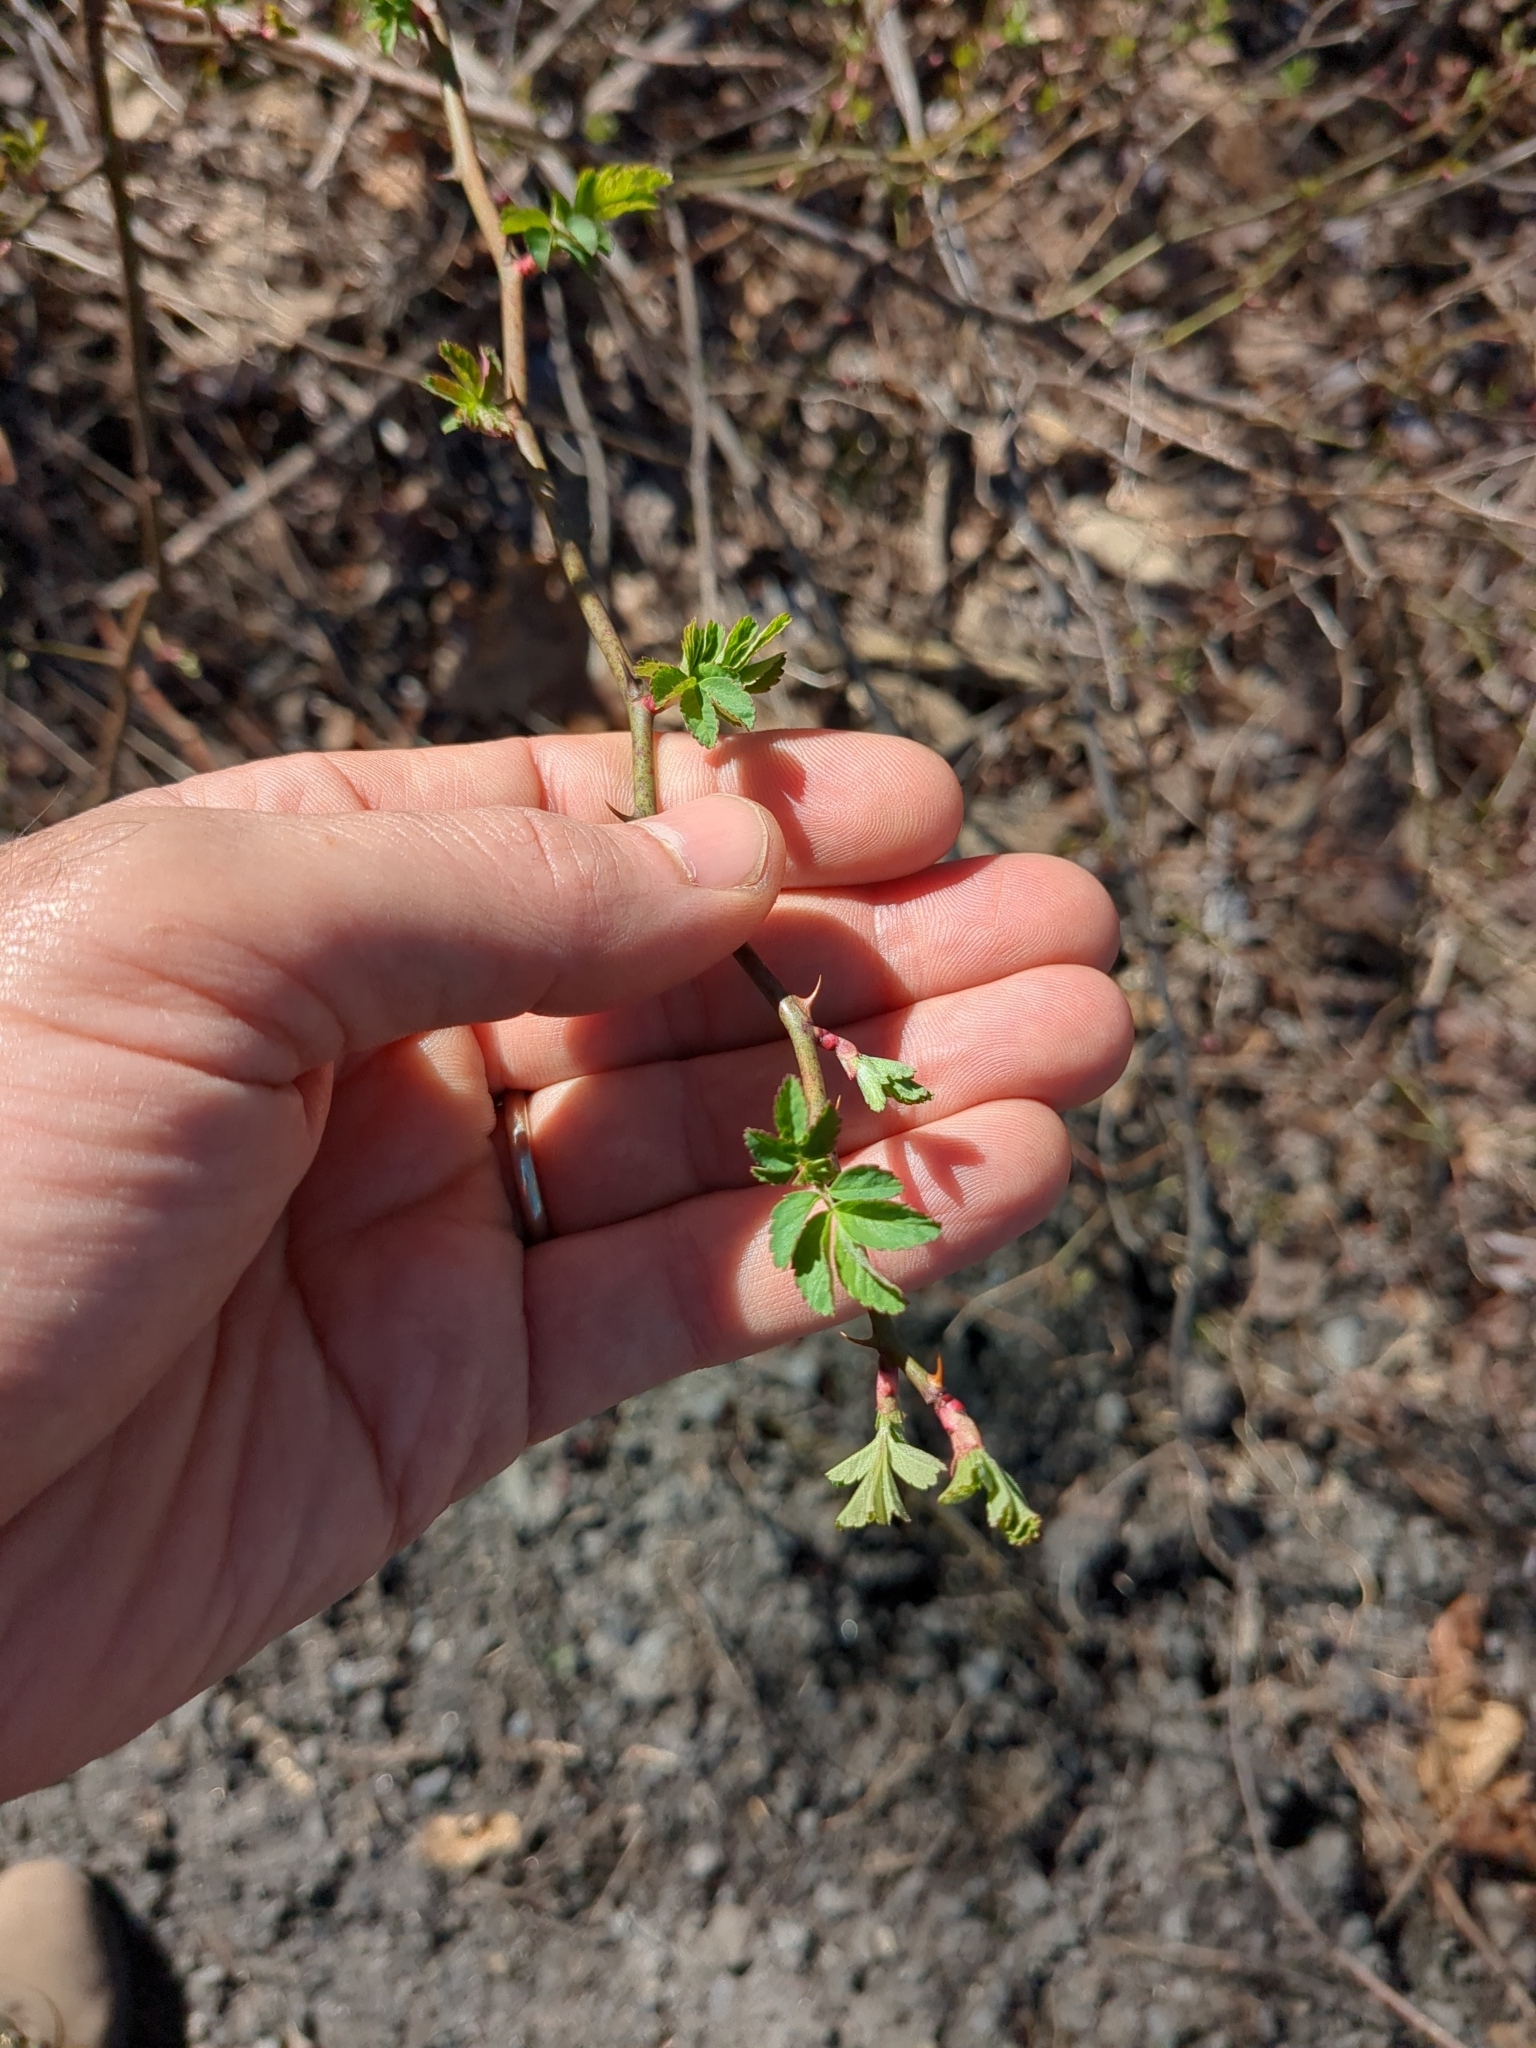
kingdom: Plantae
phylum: Tracheophyta
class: Magnoliopsida
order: Rosales
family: Rosaceae
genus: Rosa
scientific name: Rosa multiflora
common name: Multiflora rose
